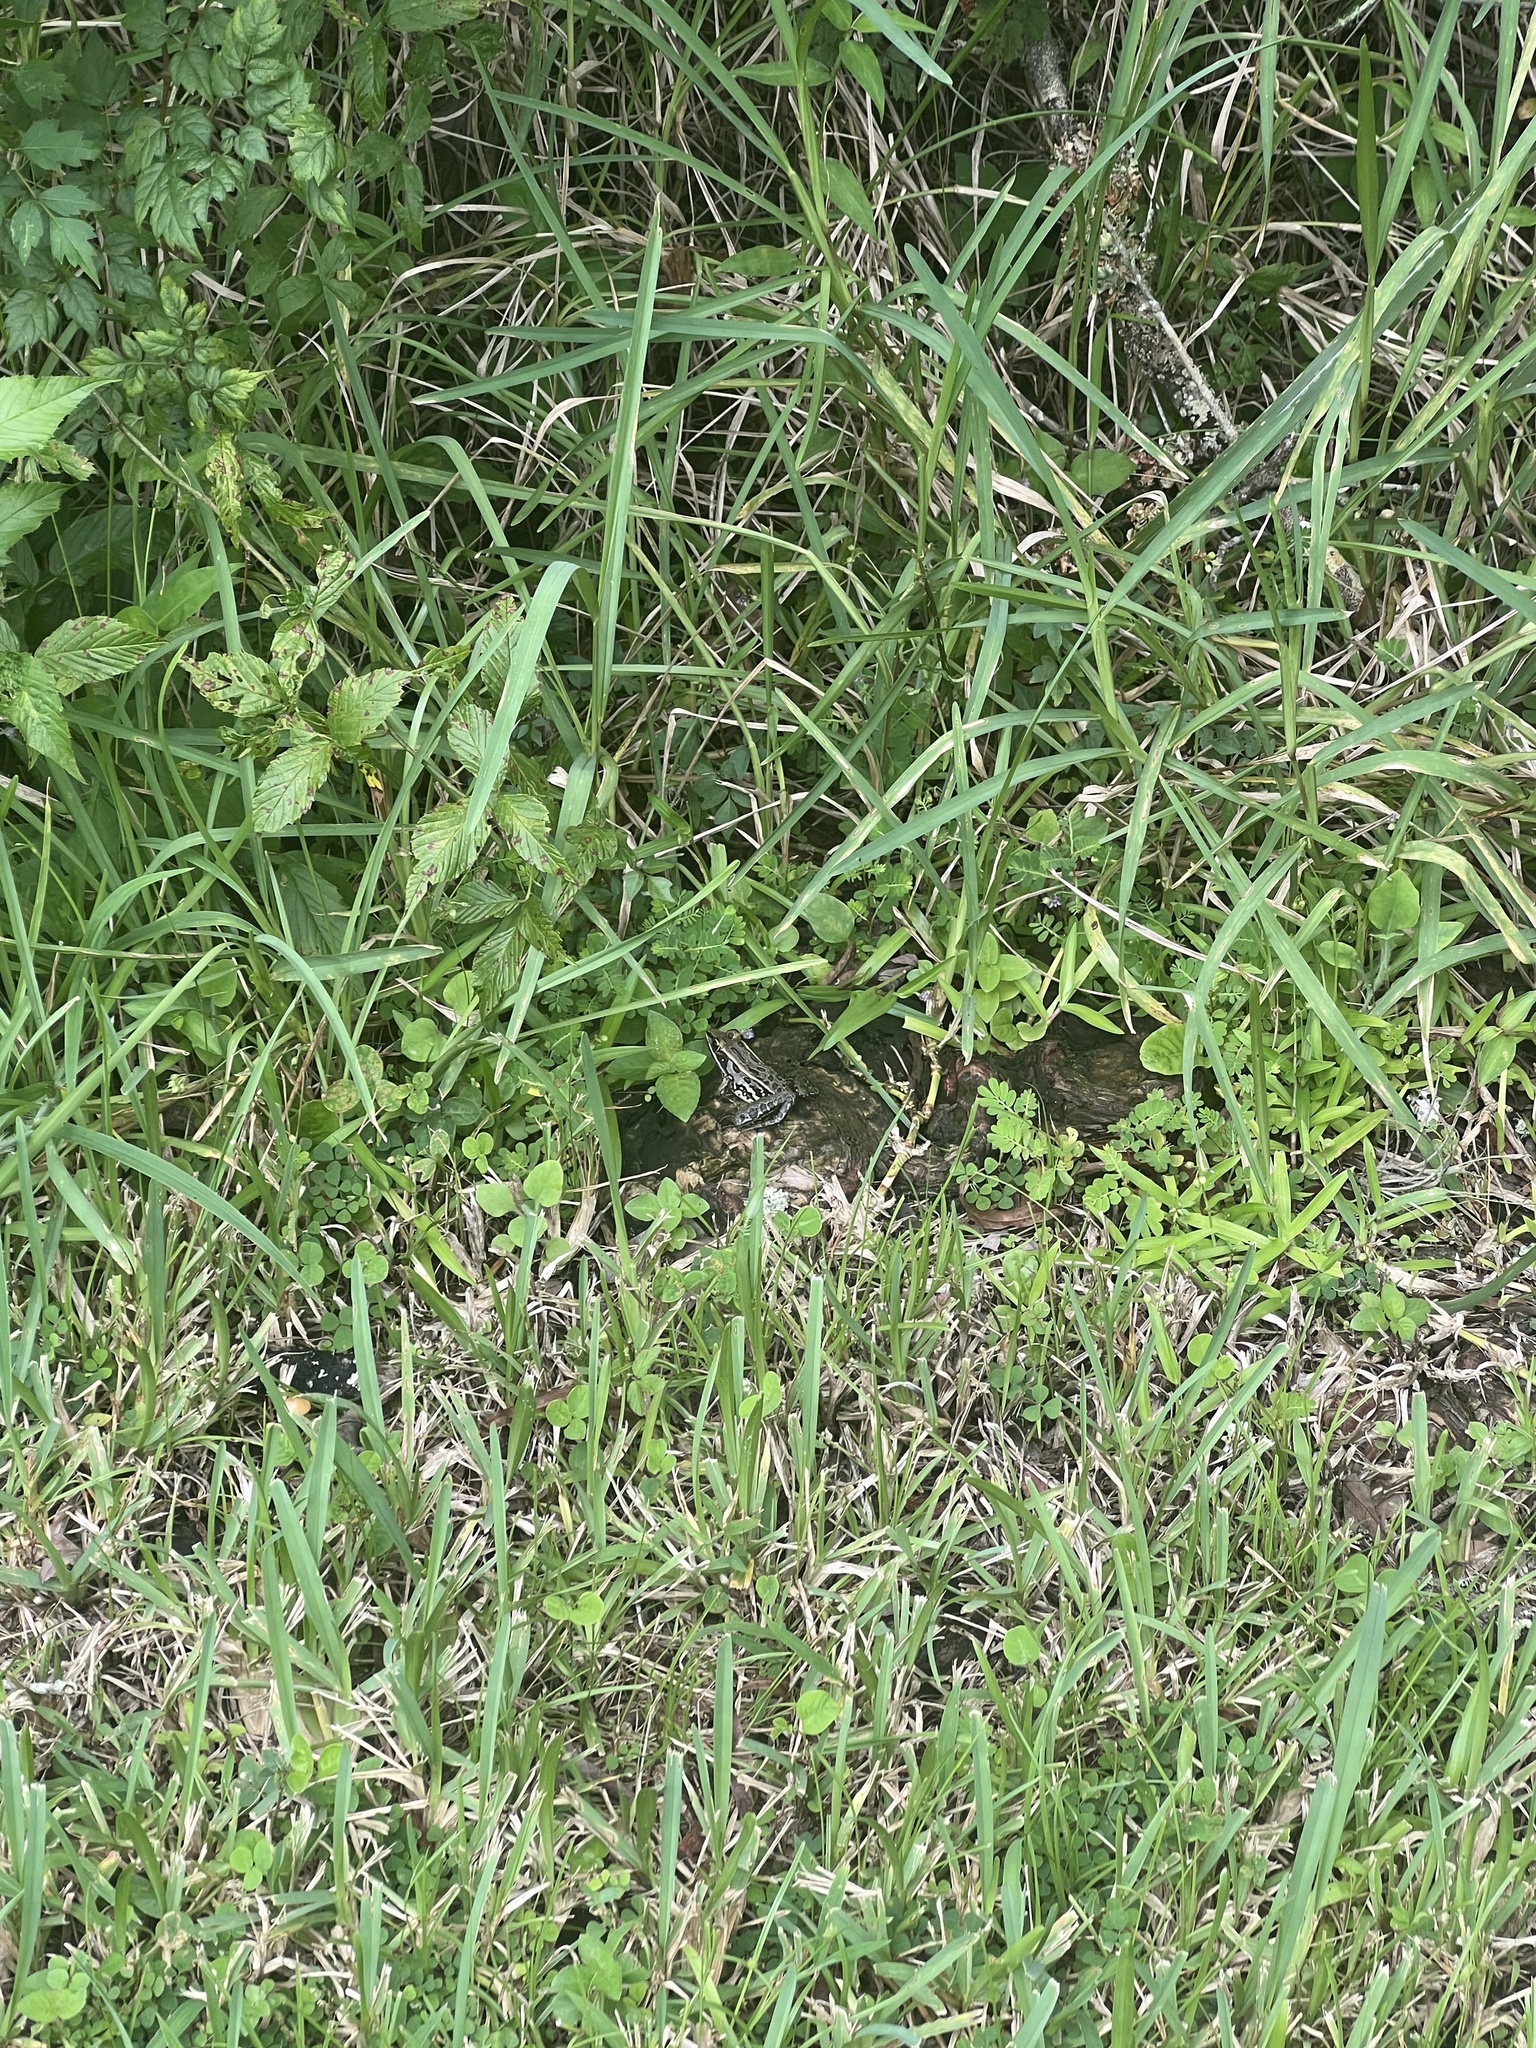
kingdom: Animalia
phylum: Chordata
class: Amphibia
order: Anura
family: Ranidae
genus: Lithobates
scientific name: Lithobates sphenocephalus
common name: Southern leopard frog
